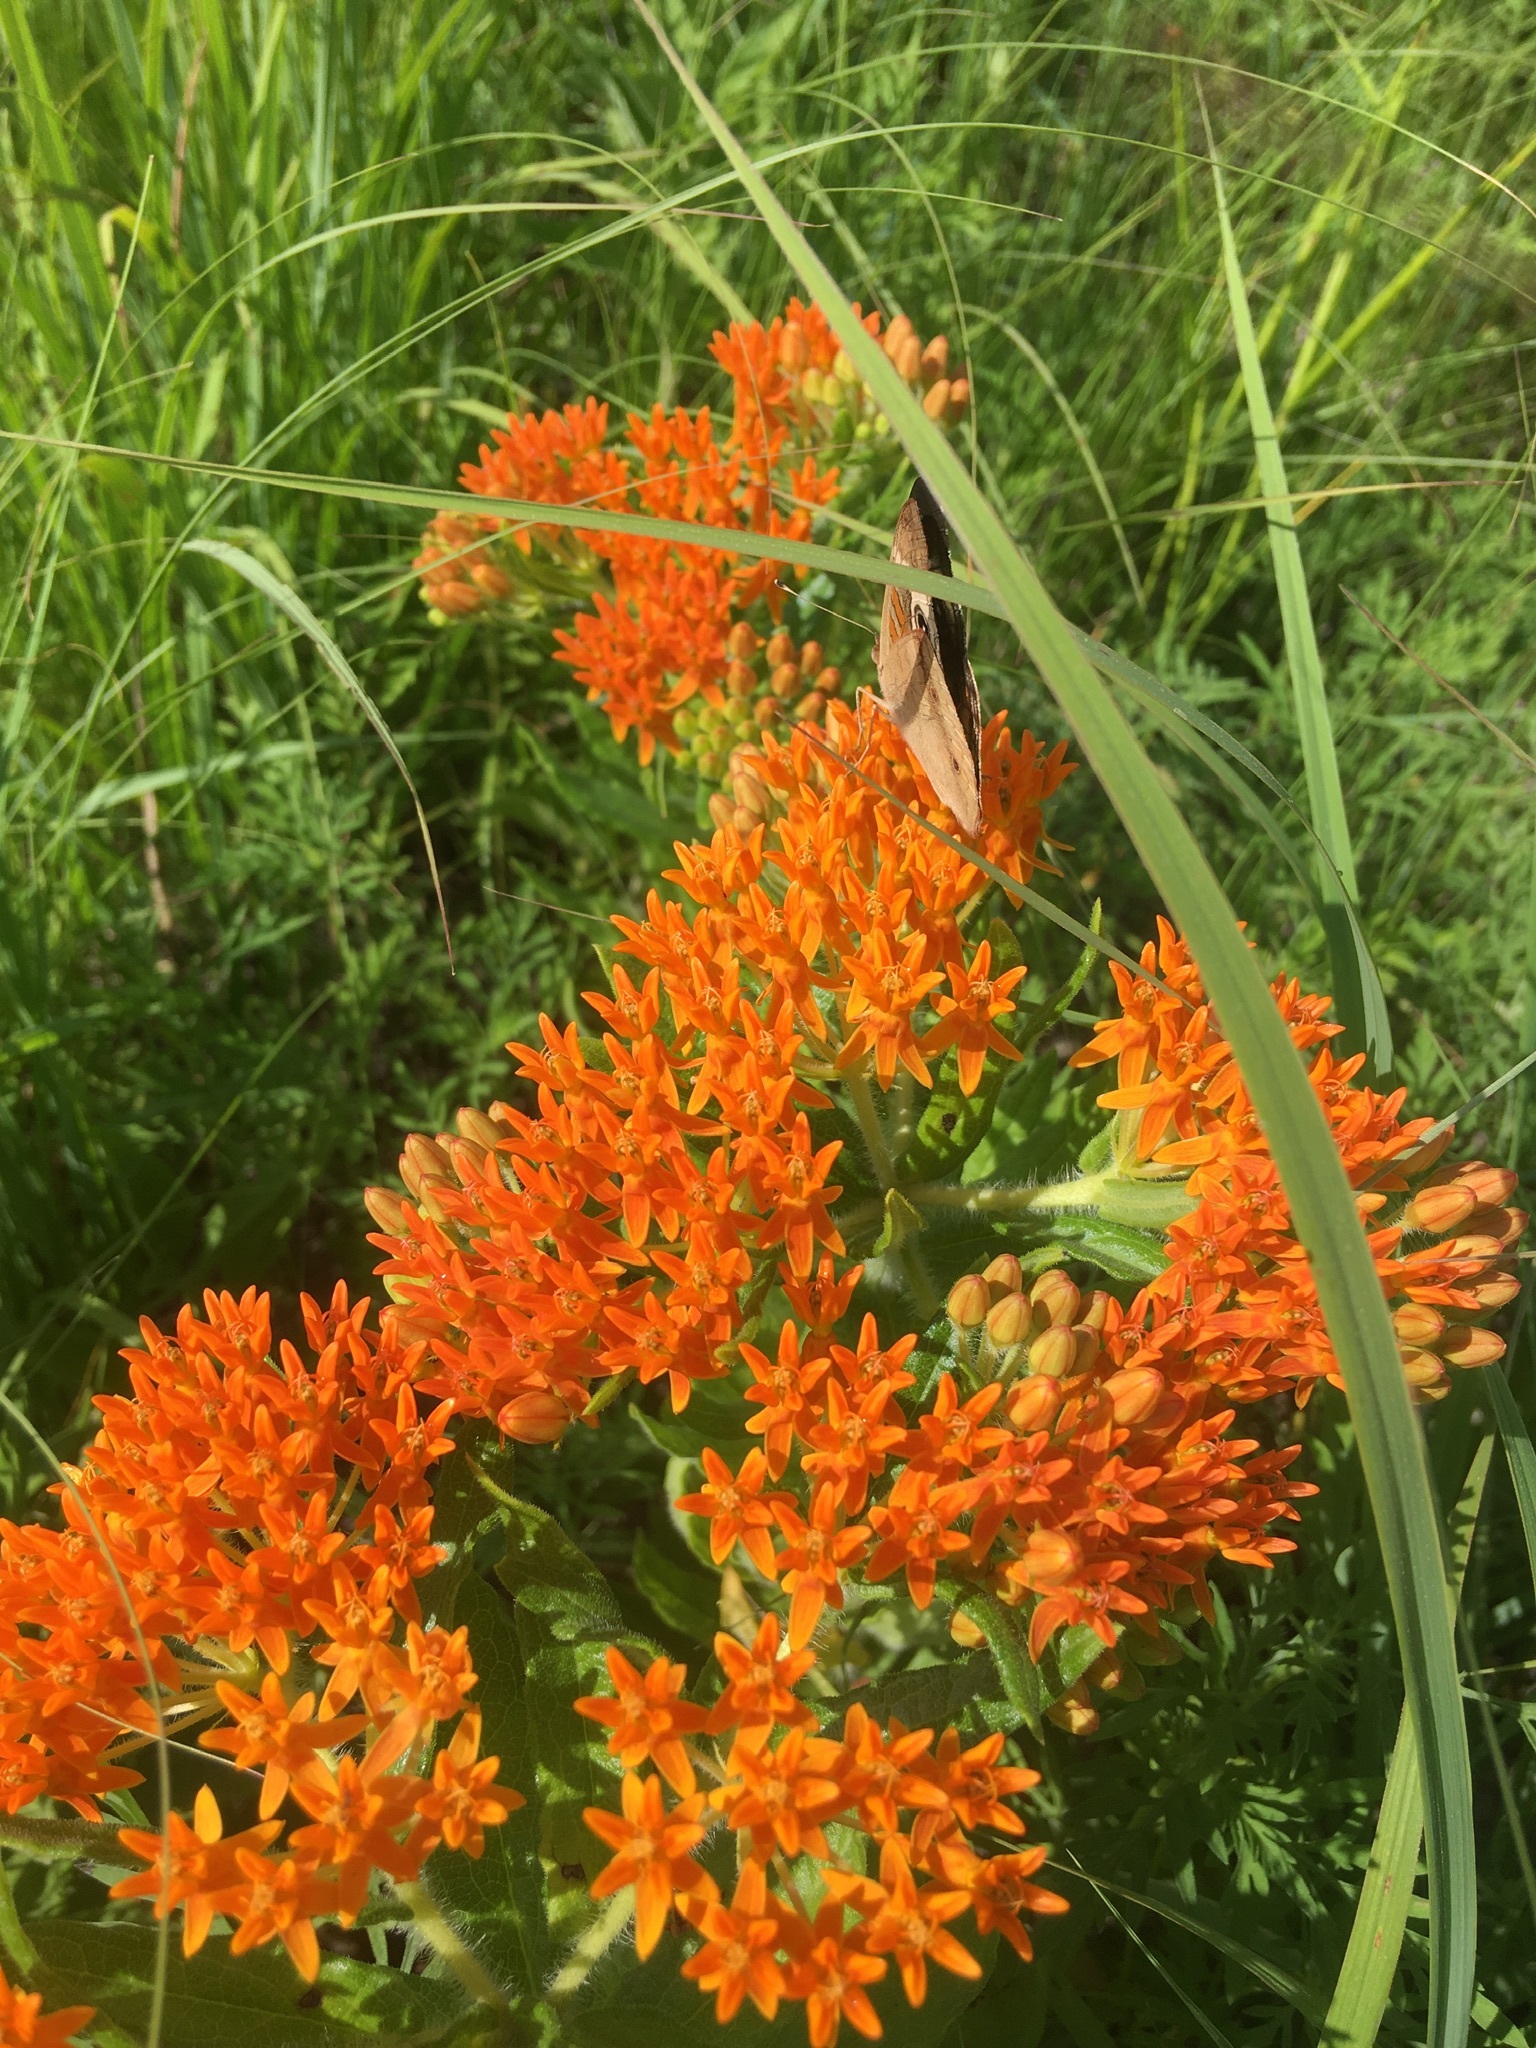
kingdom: Animalia
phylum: Arthropoda
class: Insecta
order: Lepidoptera
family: Nymphalidae
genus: Junonia
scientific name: Junonia coenia
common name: Common buckeye
